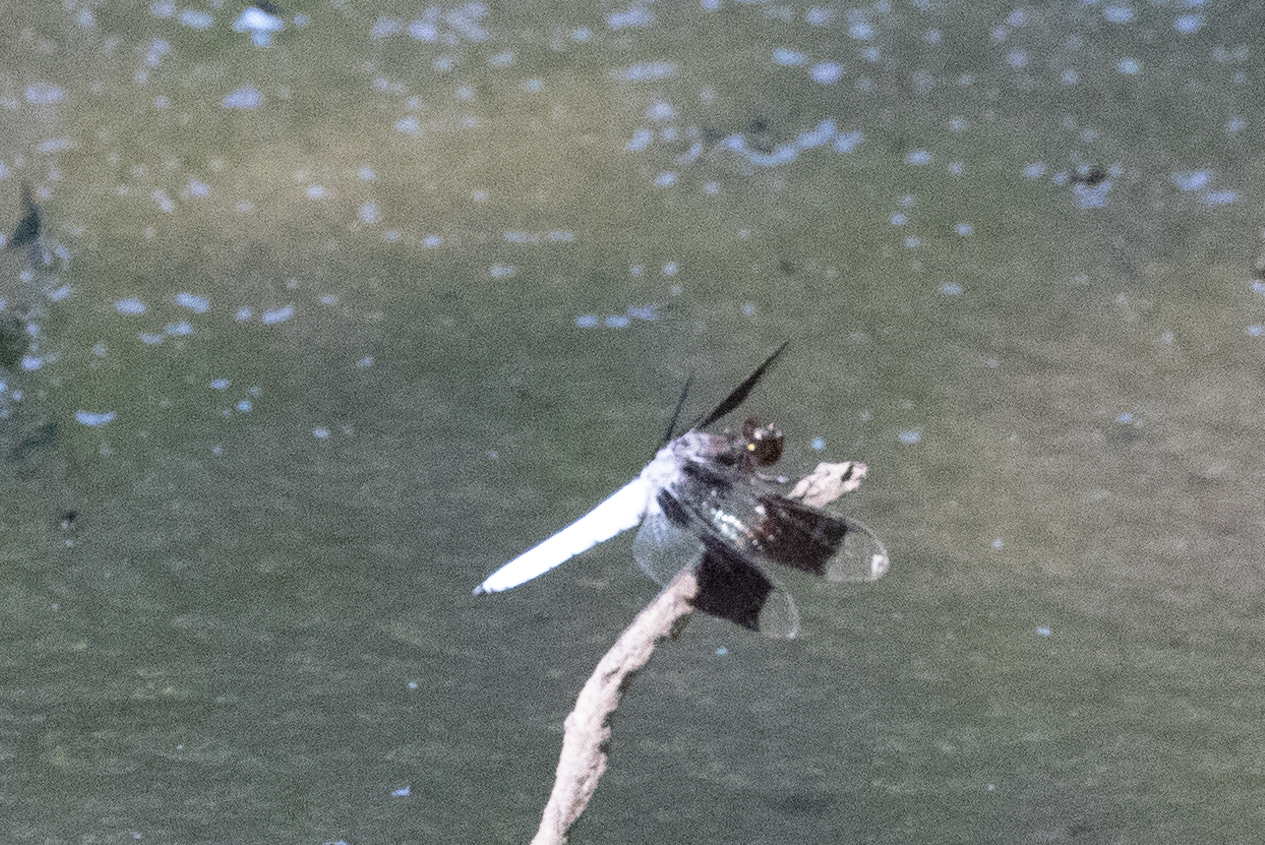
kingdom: Animalia
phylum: Arthropoda
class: Insecta
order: Odonata
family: Libellulidae
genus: Plathemis
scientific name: Plathemis lydia
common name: Common whitetail
